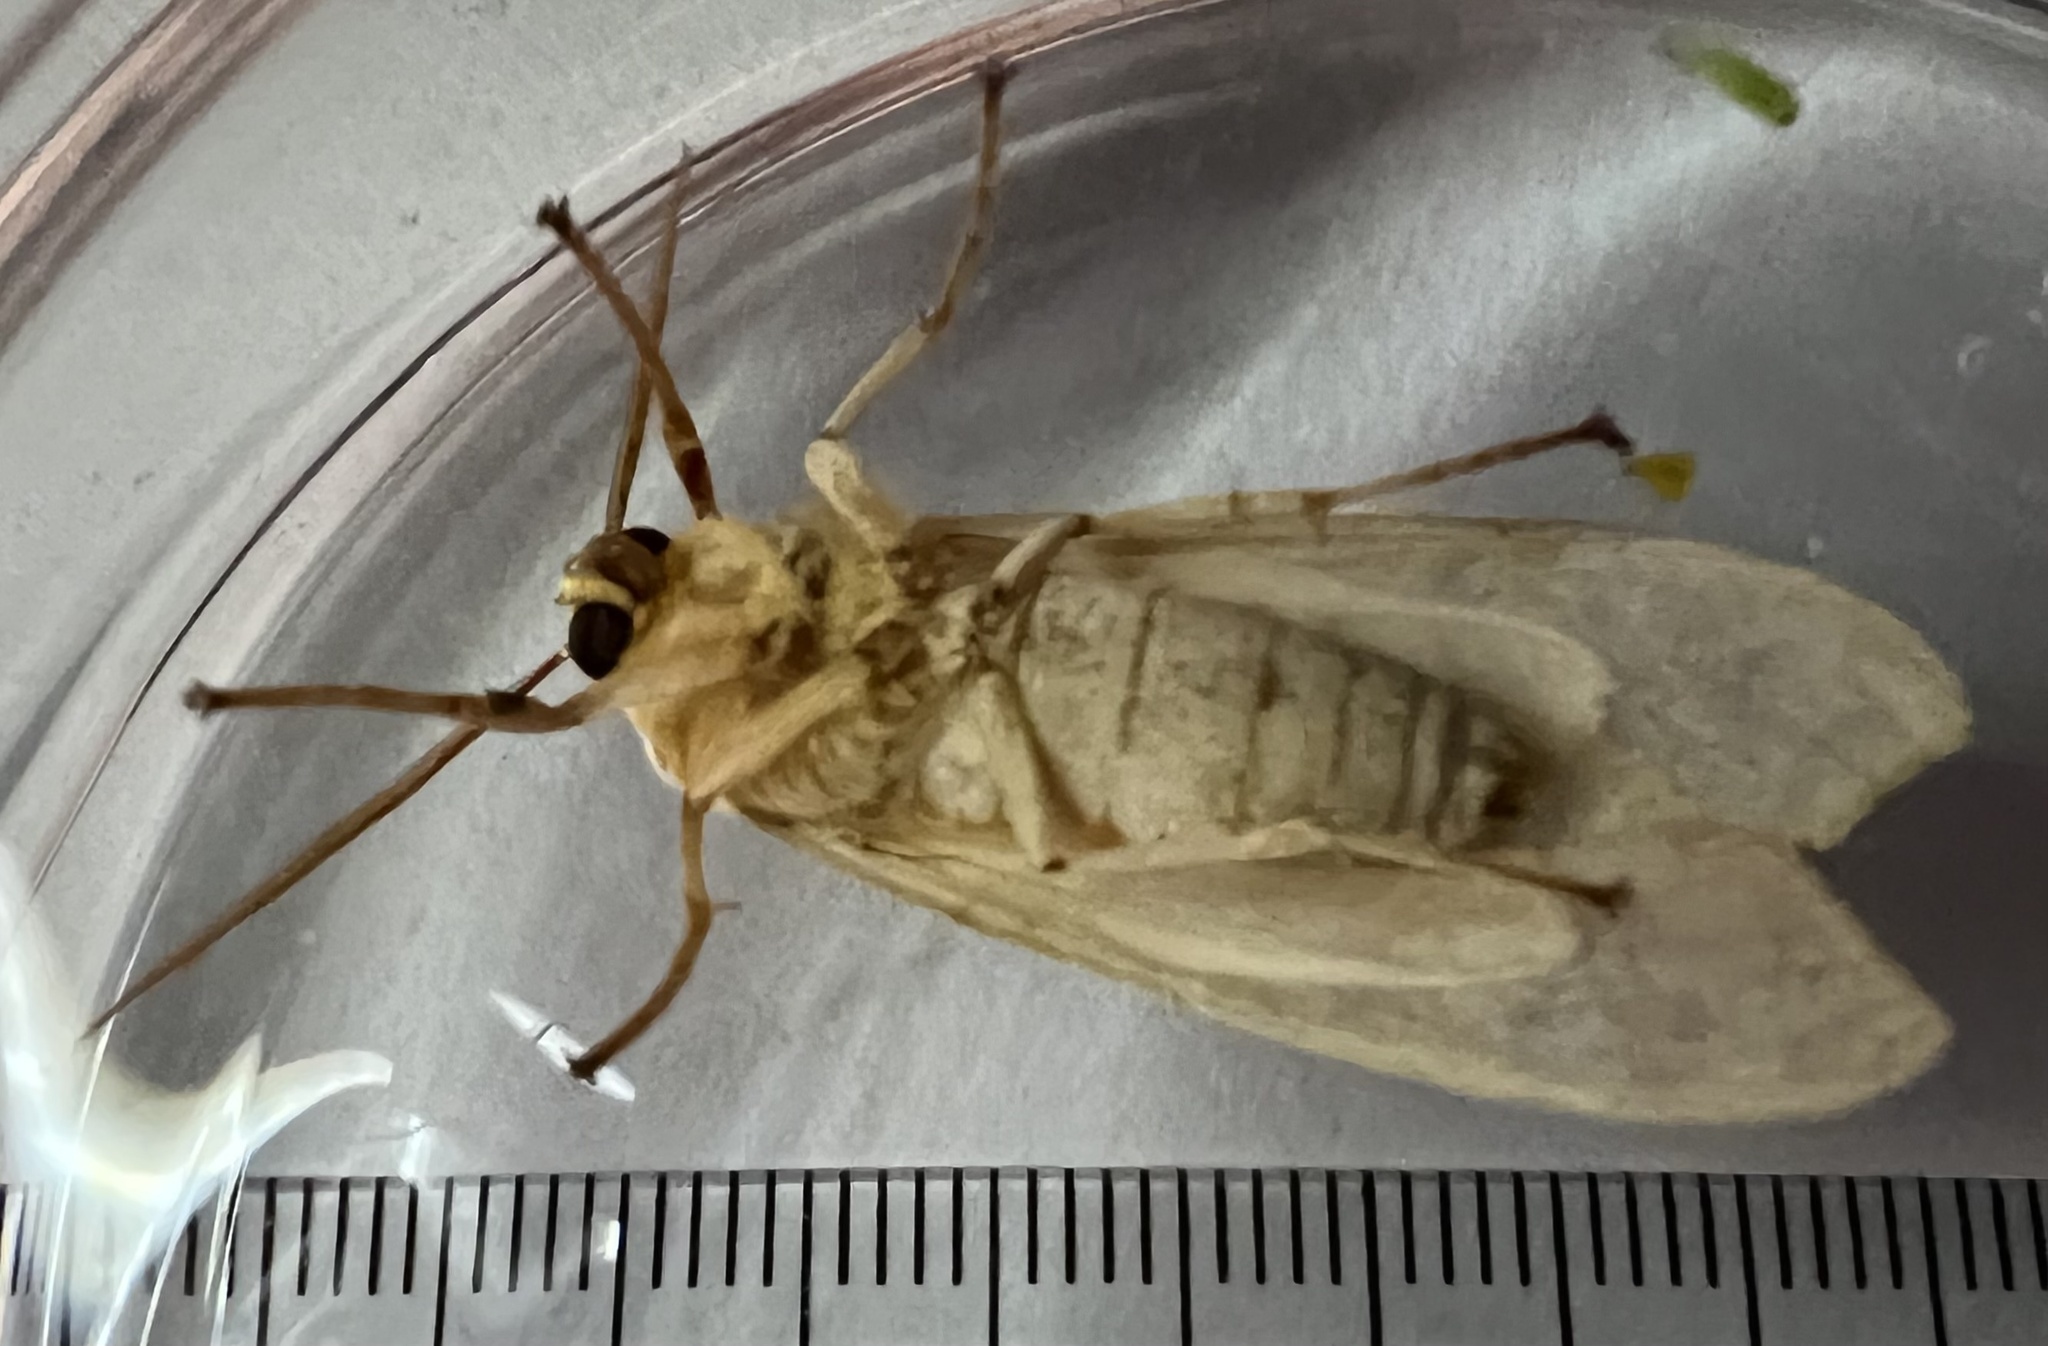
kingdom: Animalia
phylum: Arthropoda
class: Insecta
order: Lepidoptera
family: Erebidae
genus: Halysidota
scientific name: Halysidota
